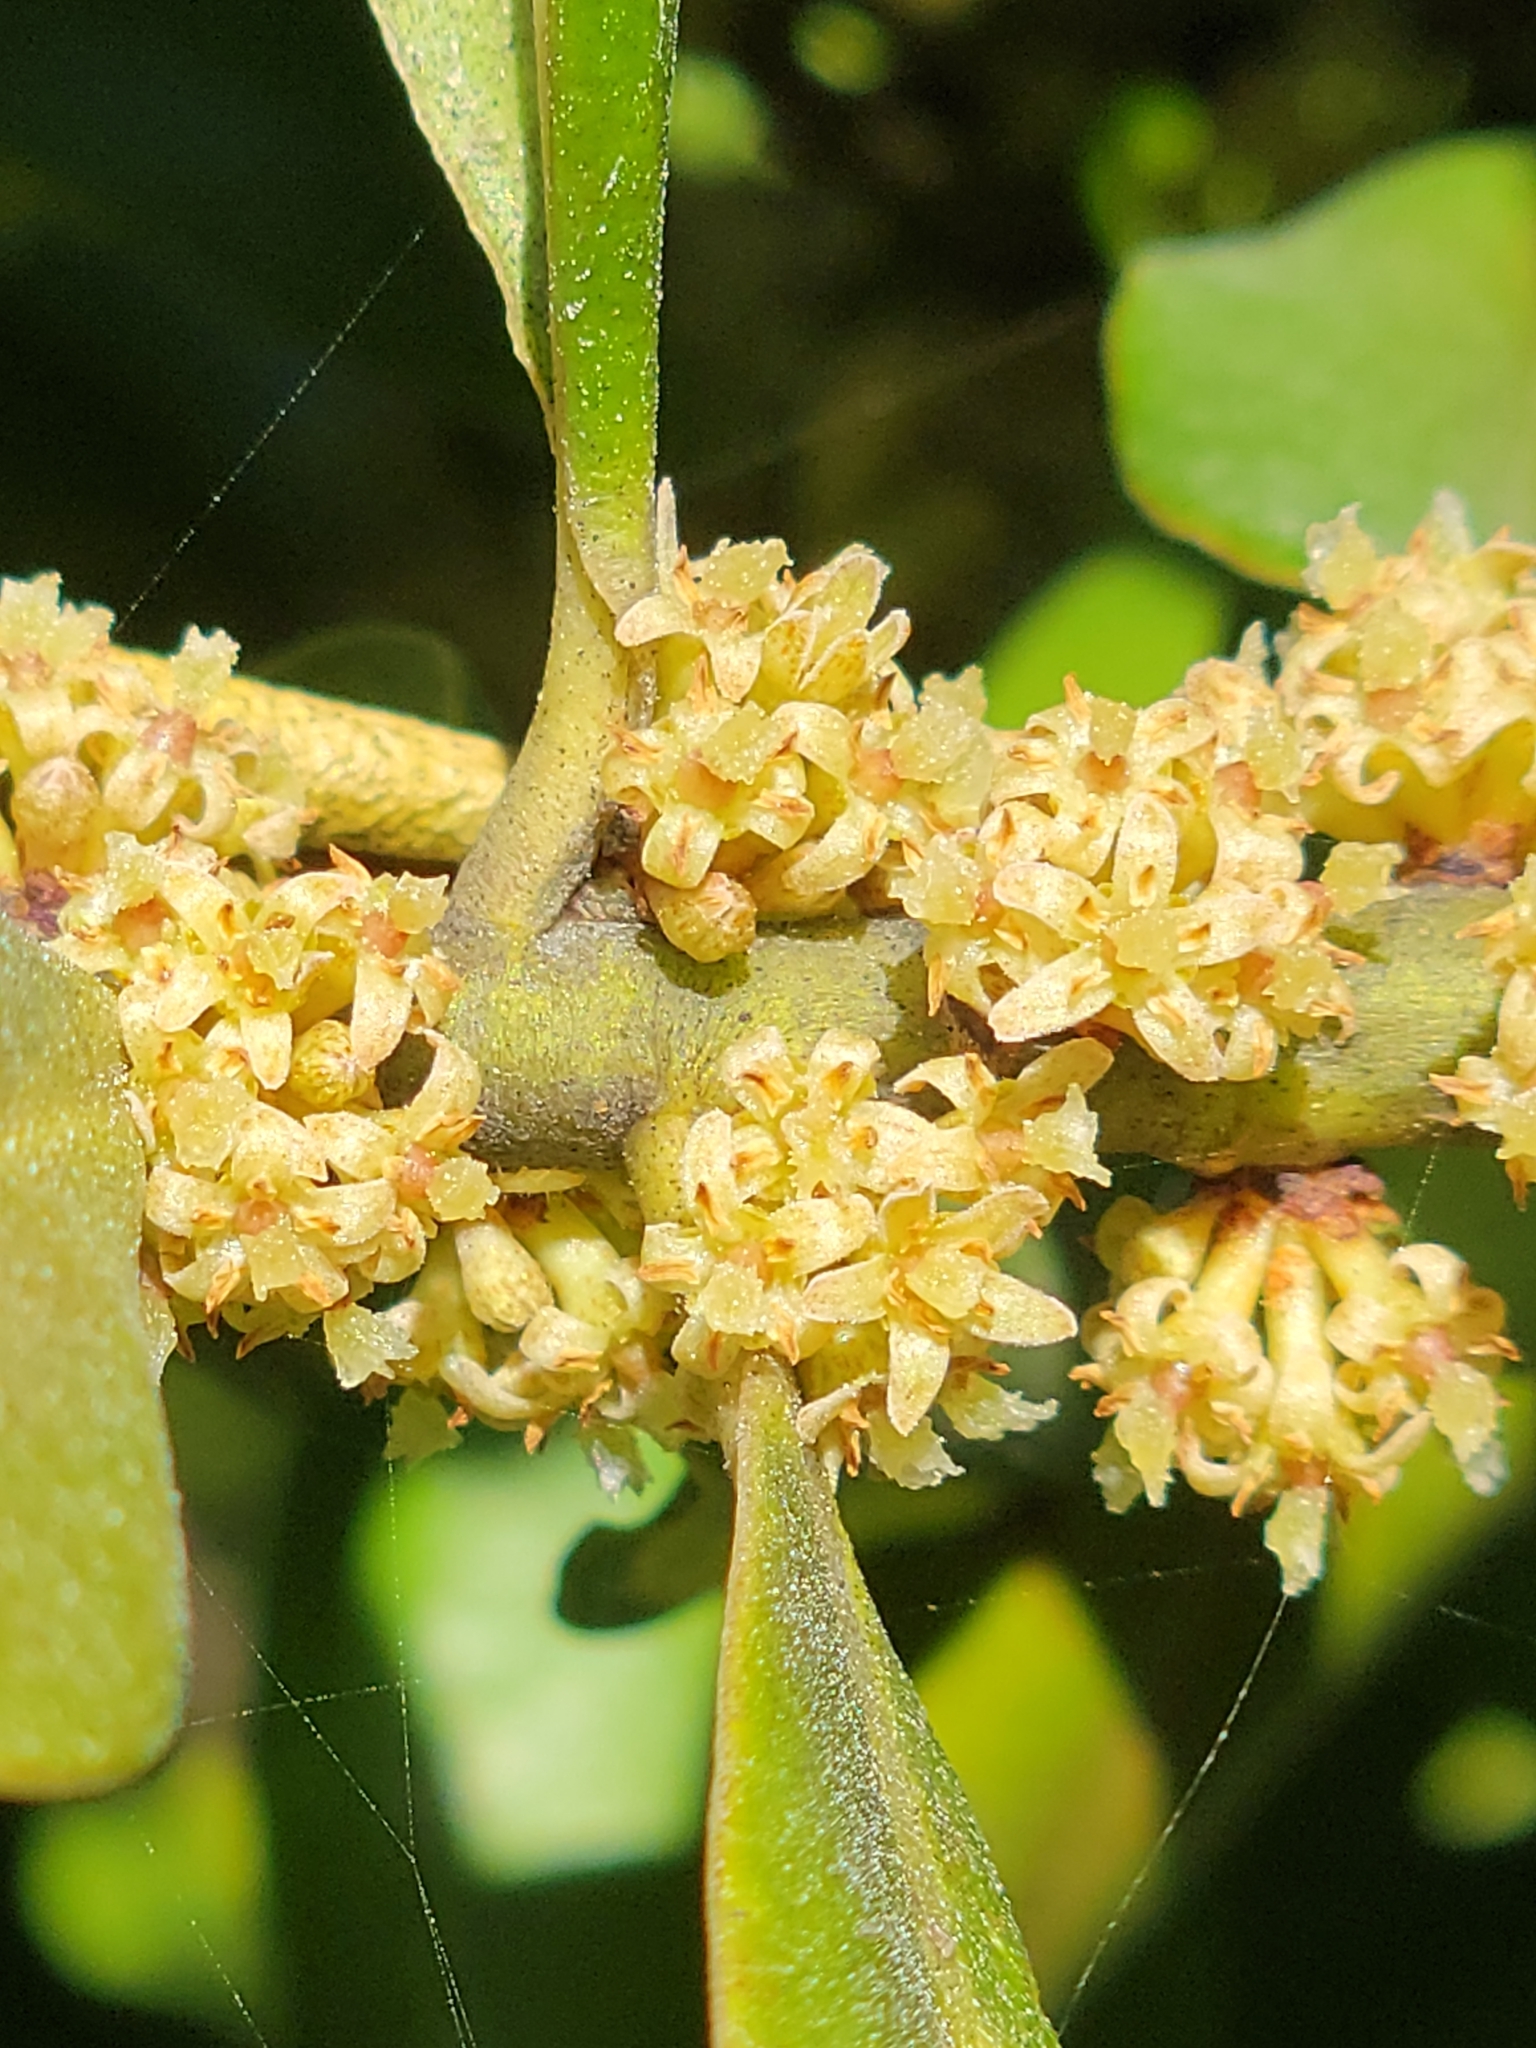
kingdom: Plantae
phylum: Tracheophyta
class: Magnoliopsida
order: Ericales
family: Primulaceae
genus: Myrsine
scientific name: Myrsine floridana
